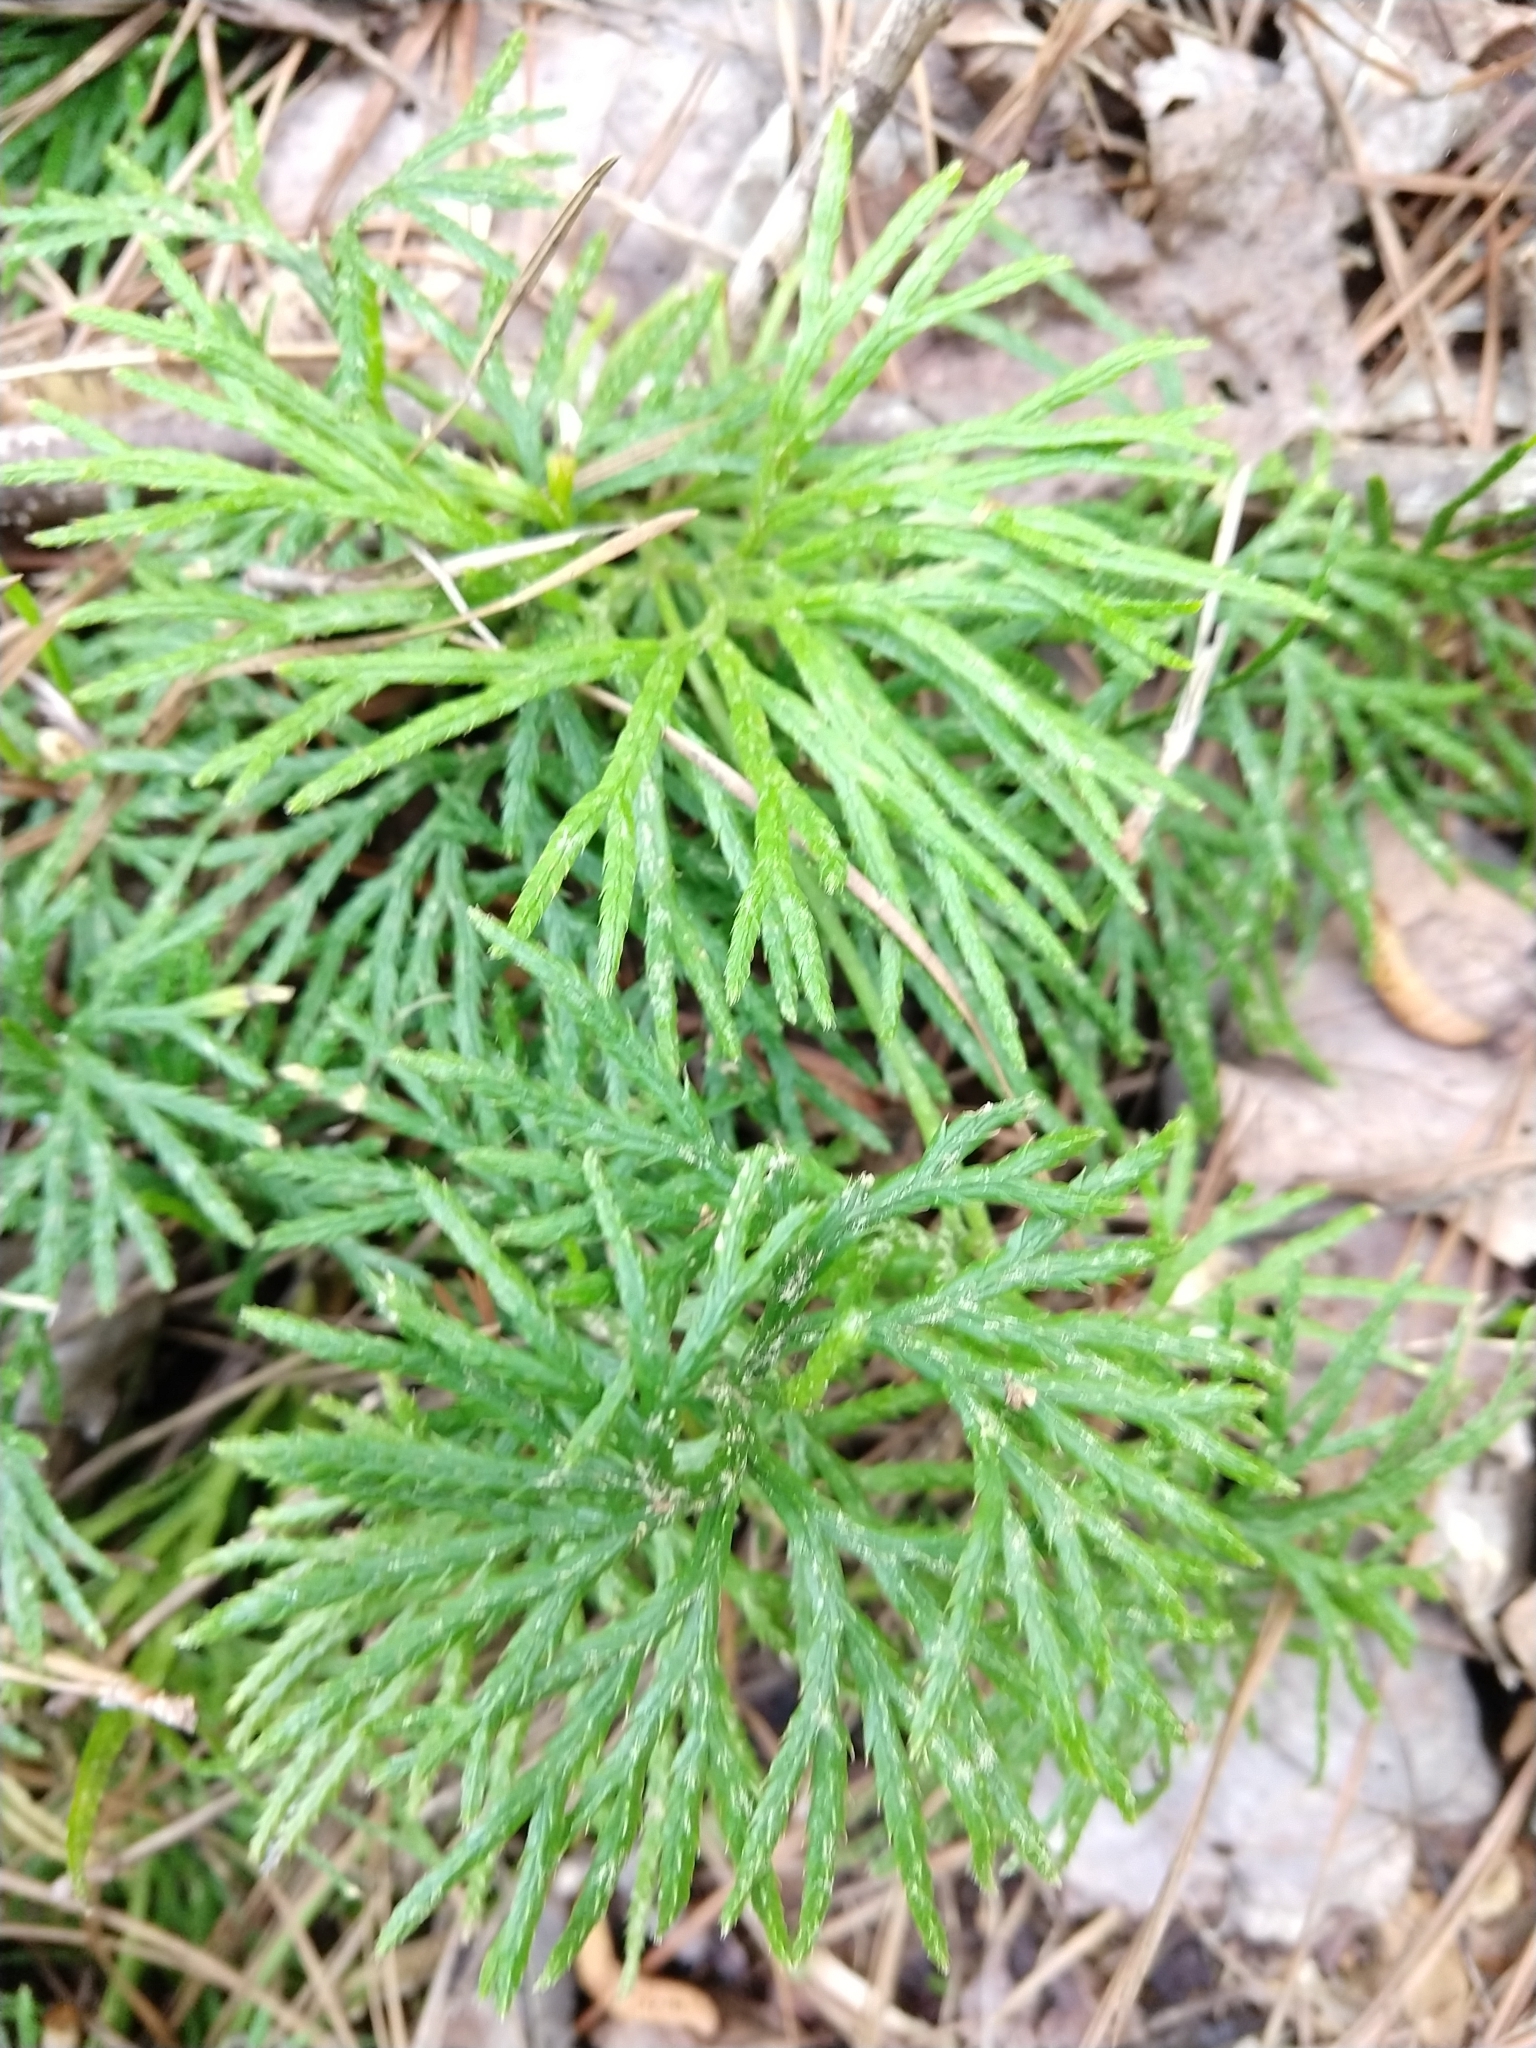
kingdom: Plantae
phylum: Tracheophyta
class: Lycopodiopsida
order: Lycopodiales
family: Lycopodiaceae
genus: Diphasiastrum
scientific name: Diphasiastrum digitatum
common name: Southern running-pine
